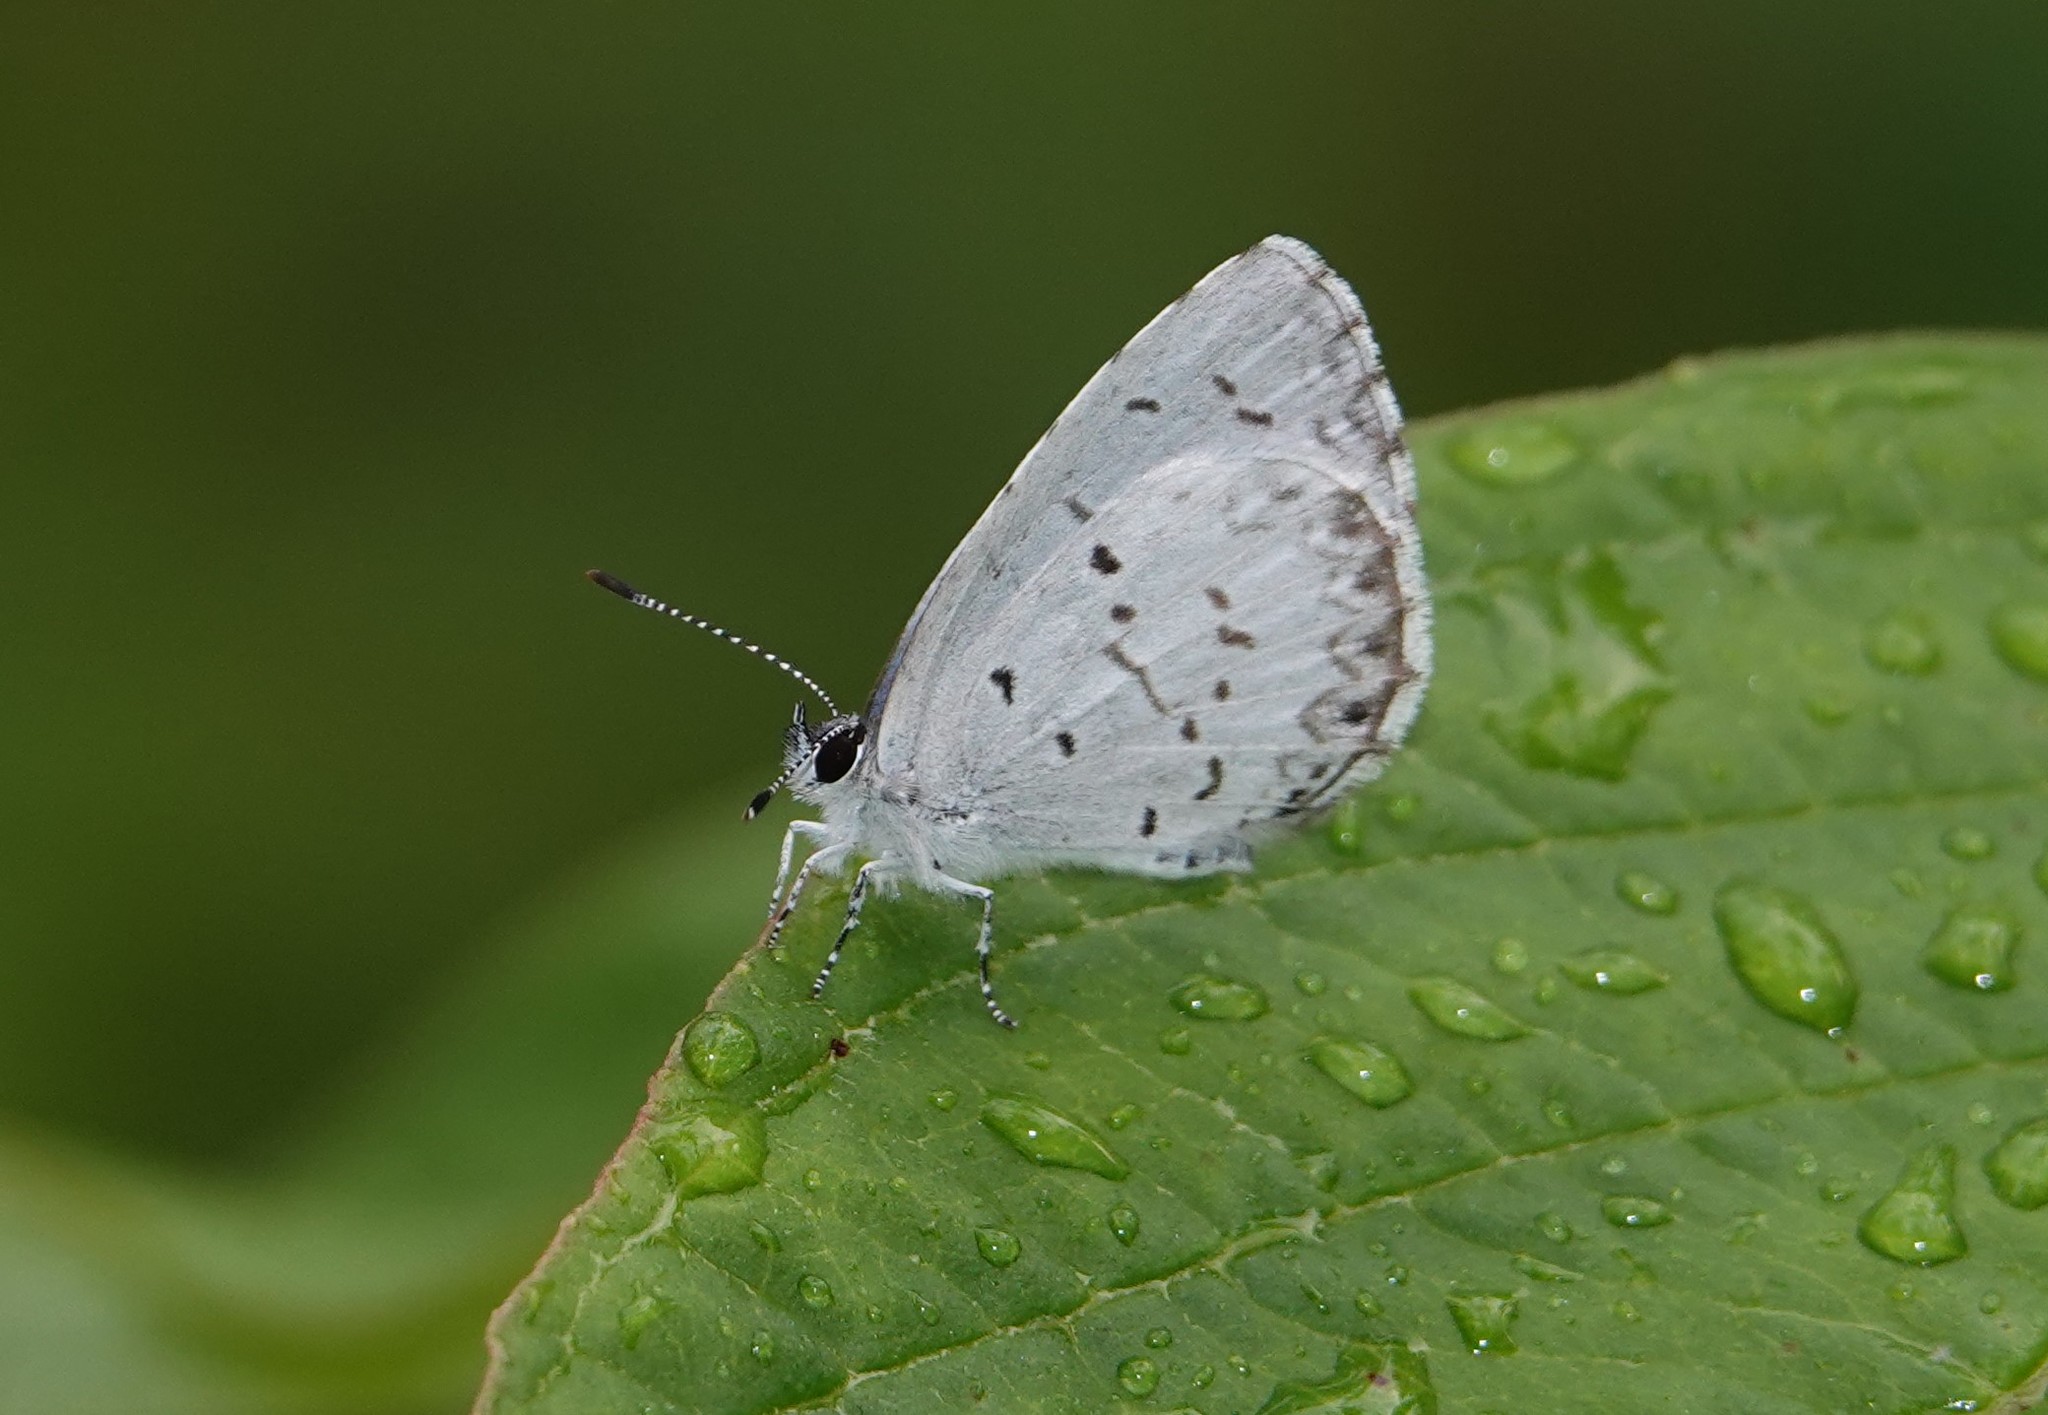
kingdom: Animalia
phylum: Arthropoda
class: Insecta
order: Lepidoptera
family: Lycaenidae
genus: Celastrina
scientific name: Celastrina lucia
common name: Lucia azure
